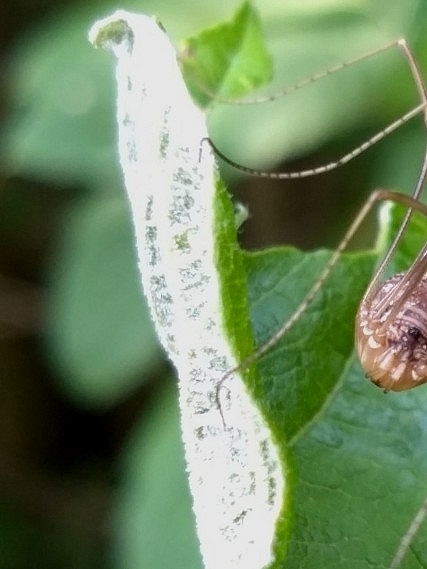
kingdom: Animalia
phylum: Arthropoda
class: Arachnida
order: Opiliones
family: Phalangiidae
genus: Phalangium
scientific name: Phalangium opilio
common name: Daddy longleg
